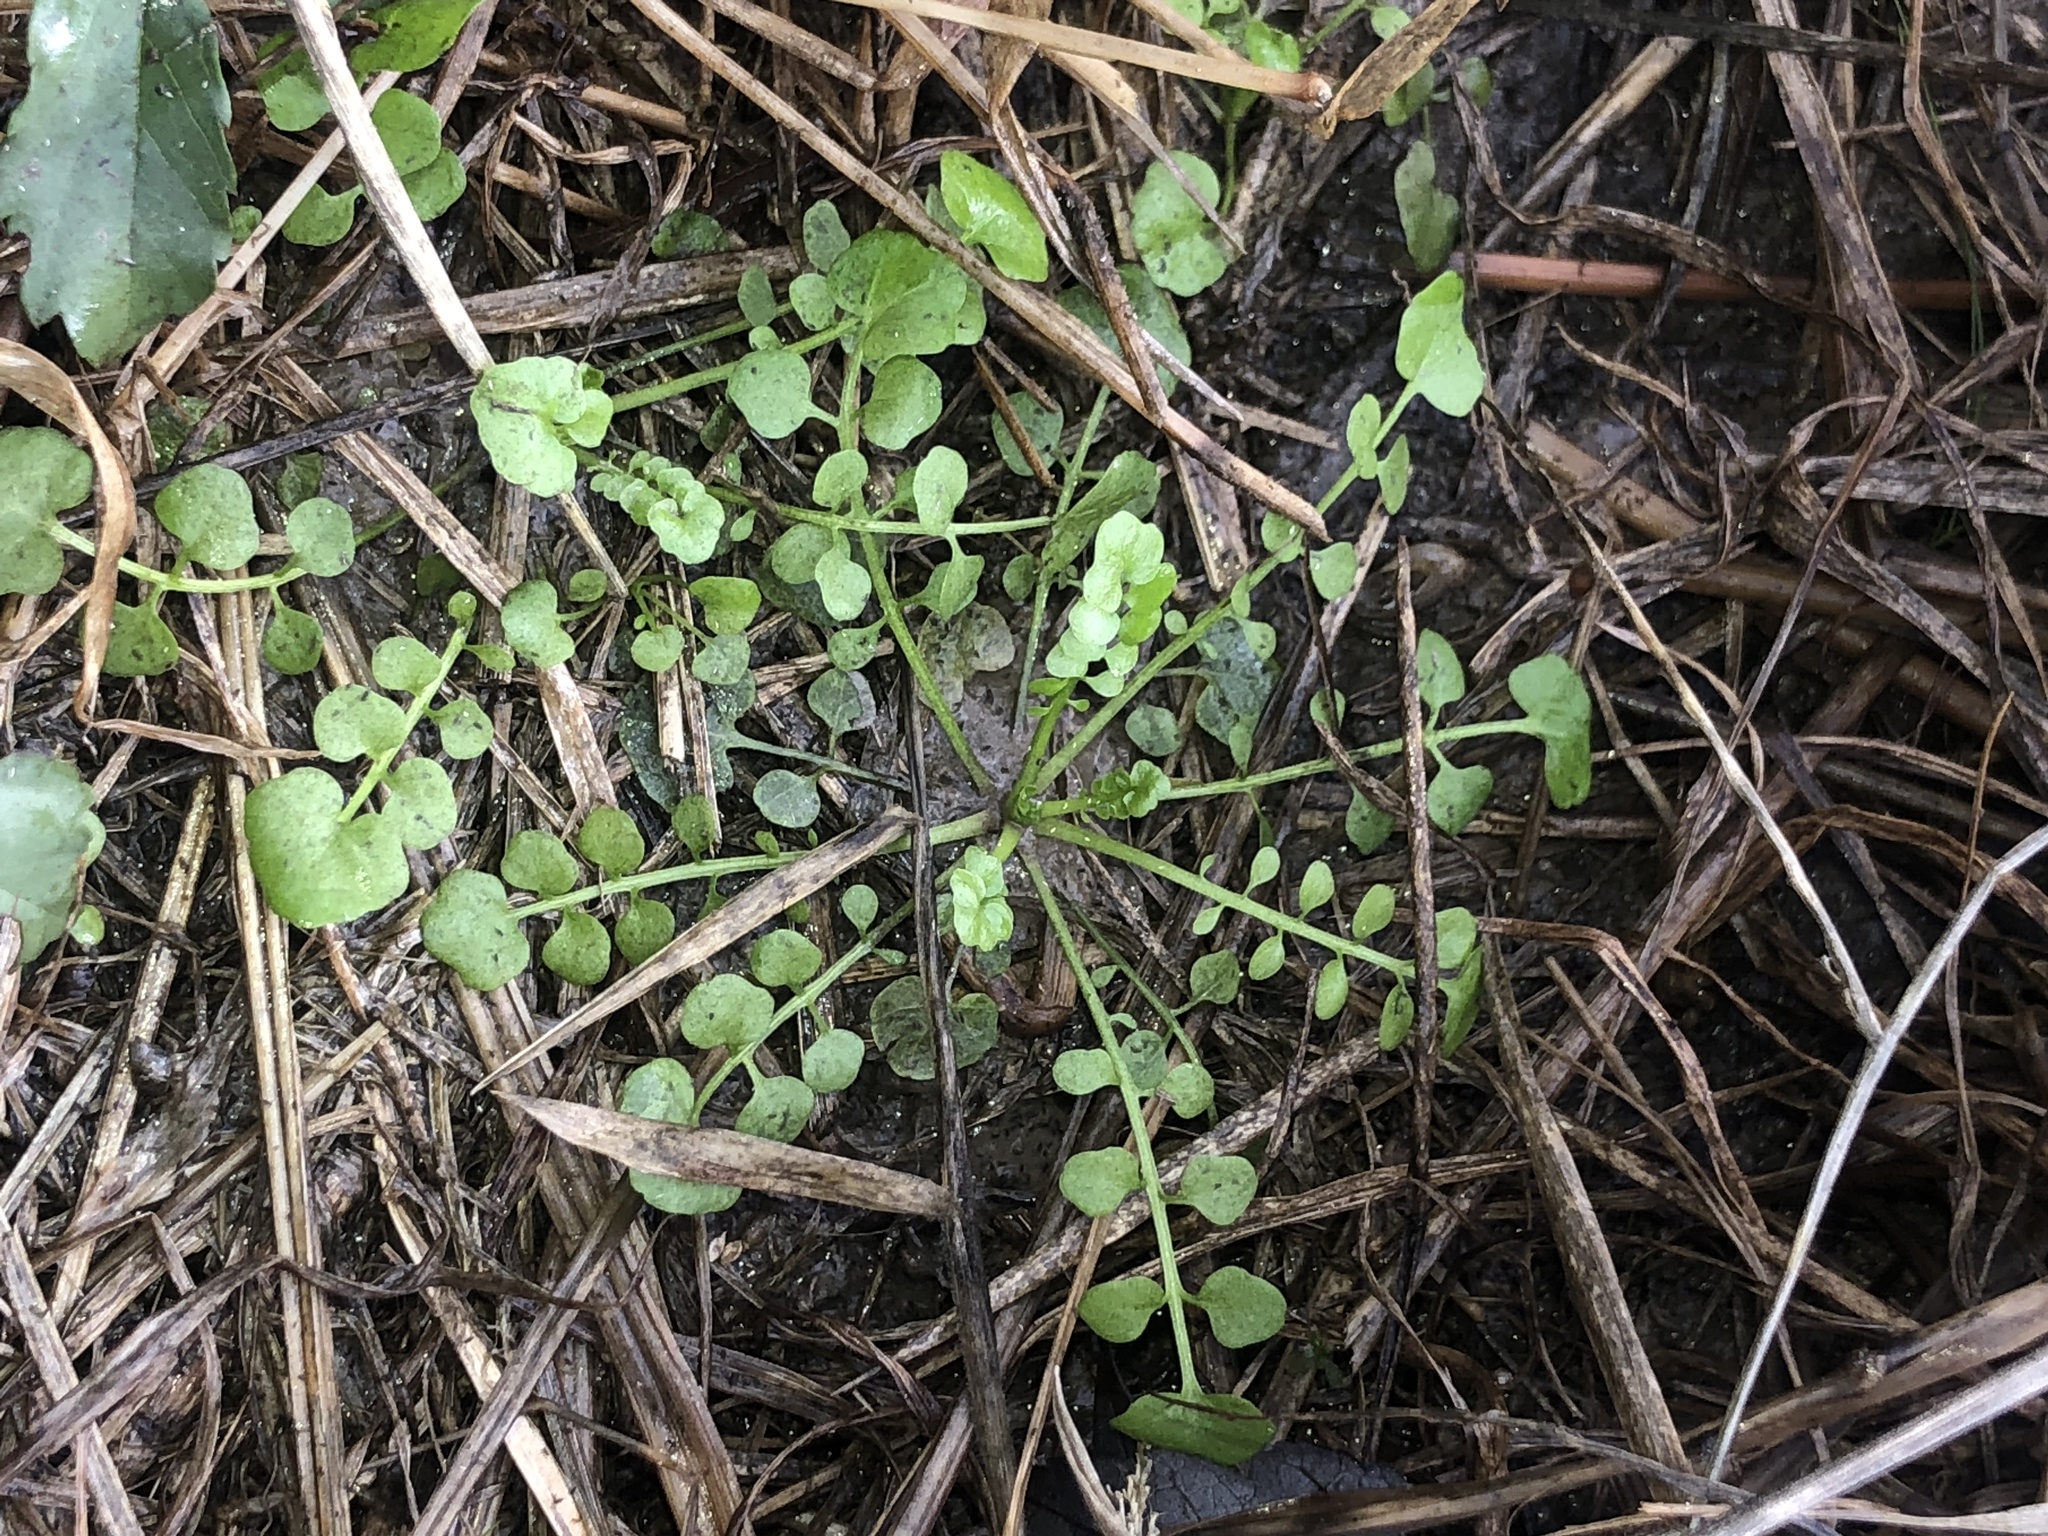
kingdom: Plantae
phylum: Tracheophyta
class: Magnoliopsida
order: Brassicales
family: Brassicaceae
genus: Cardamine
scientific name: Cardamine pensylvanica
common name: Pennsylvania bittercress
